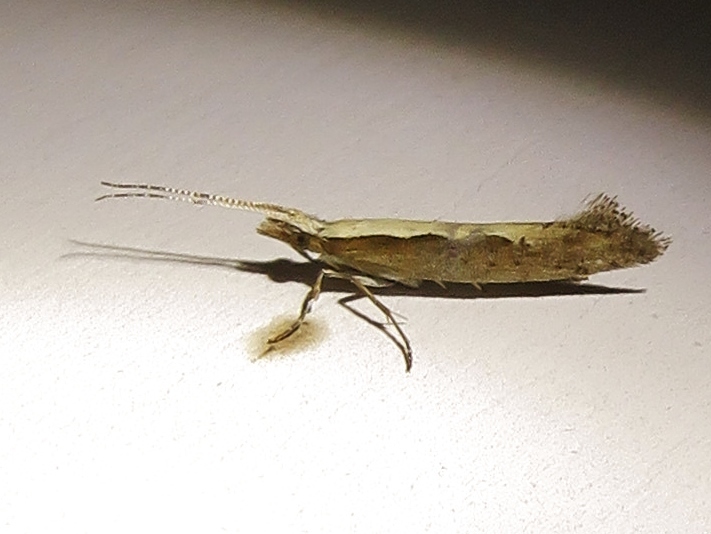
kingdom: Animalia
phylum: Arthropoda
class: Insecta
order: Lepidoptera
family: Plutellidae
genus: Plutella
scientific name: Plutella xylostella
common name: Diamond-back moth
